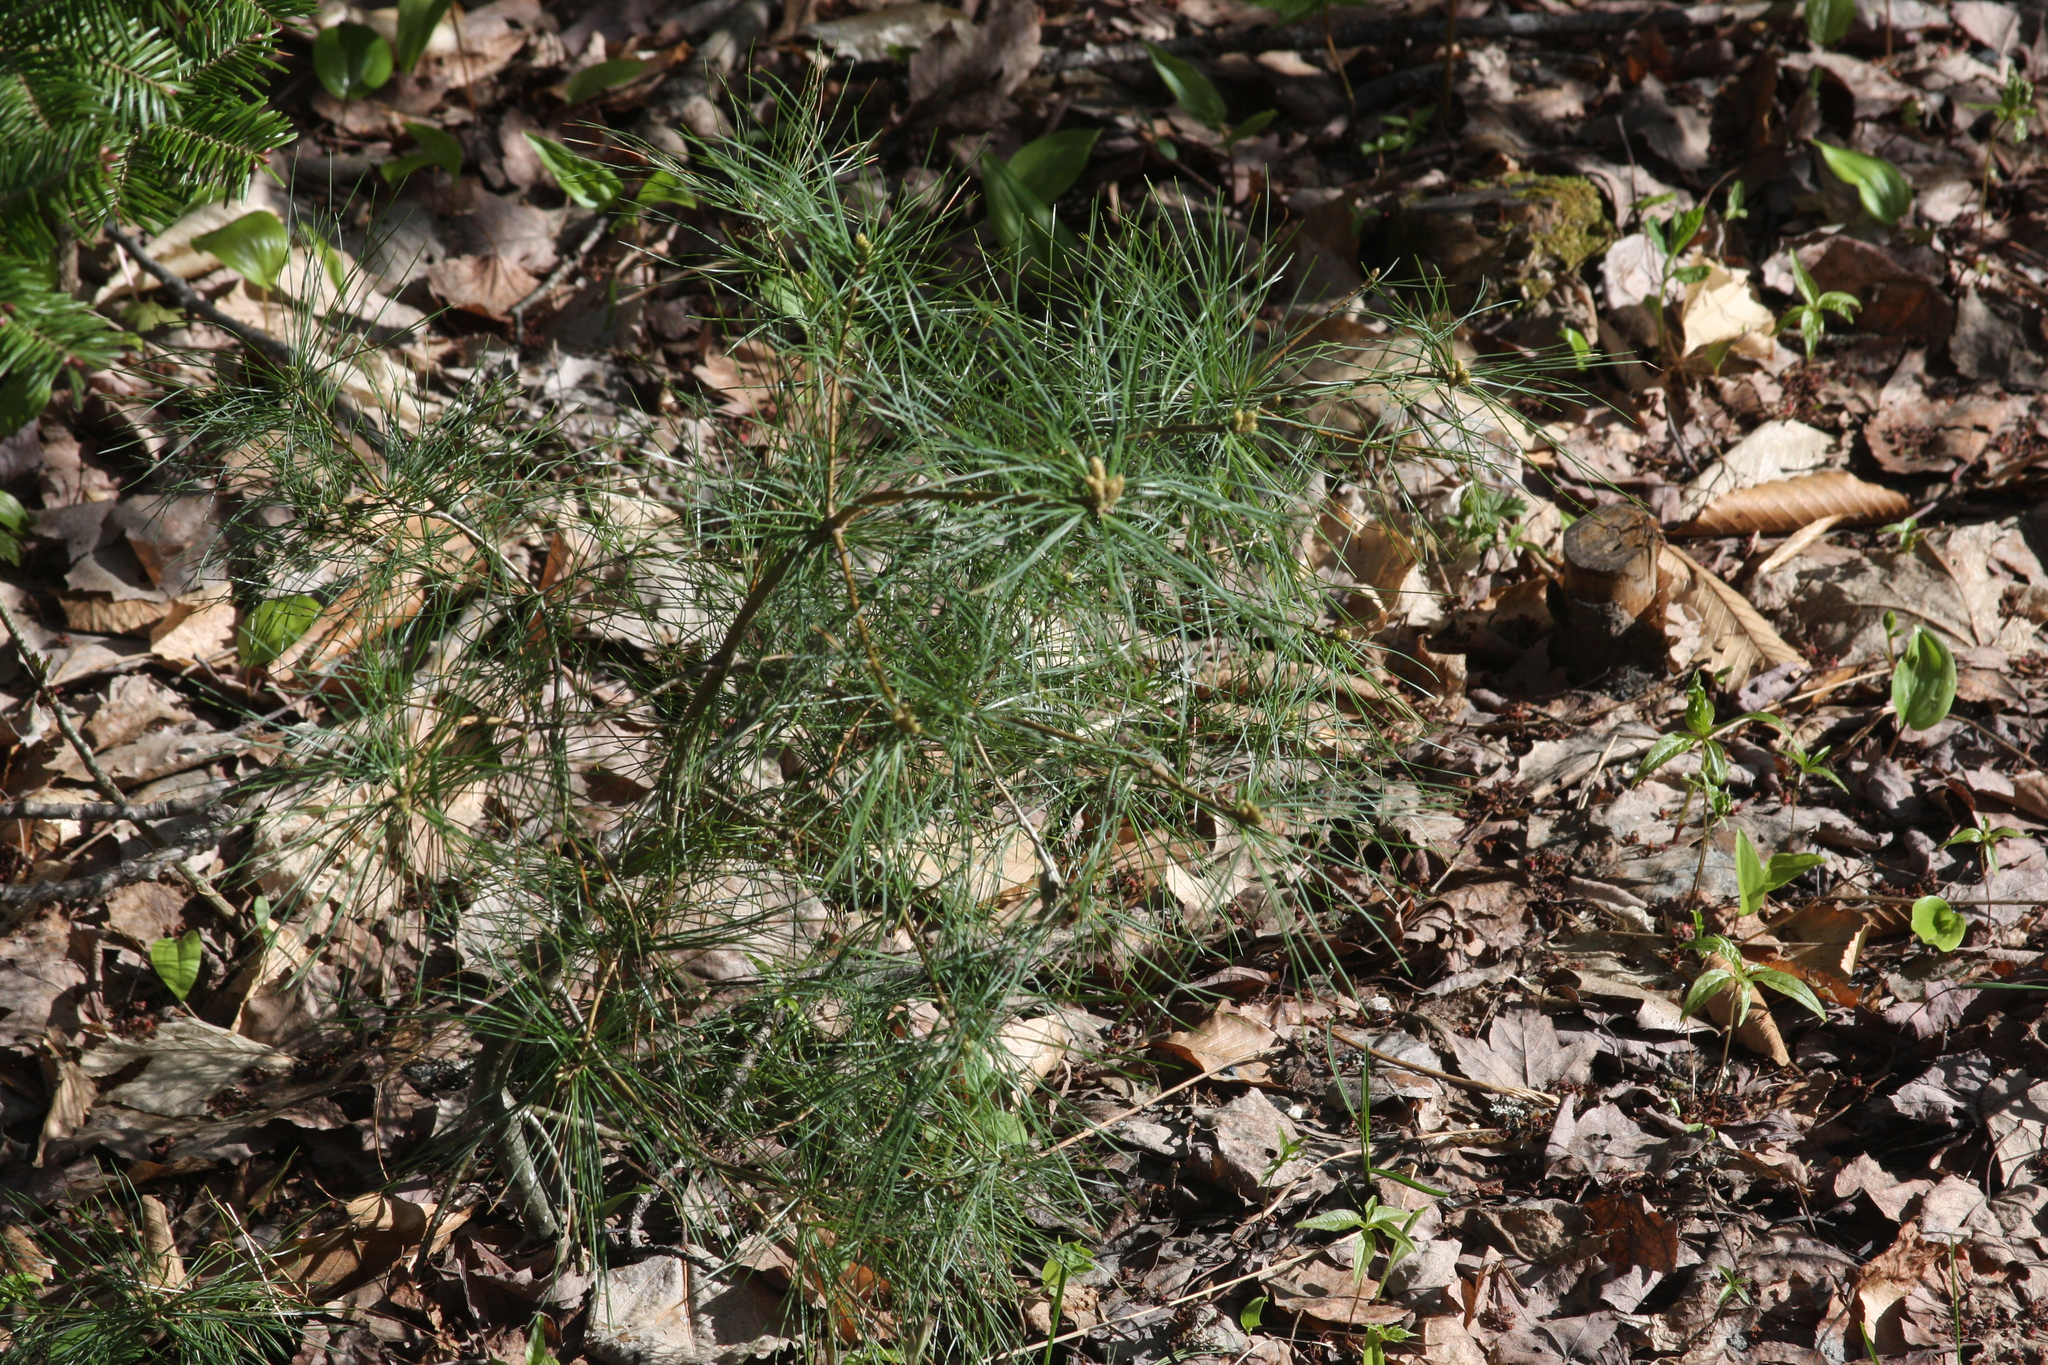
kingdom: Plantae
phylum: Tracheophyta
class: Pinopsida
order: Pinales
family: Pinaceae
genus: Pinus
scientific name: Pinus strobus
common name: Weymouth pine
